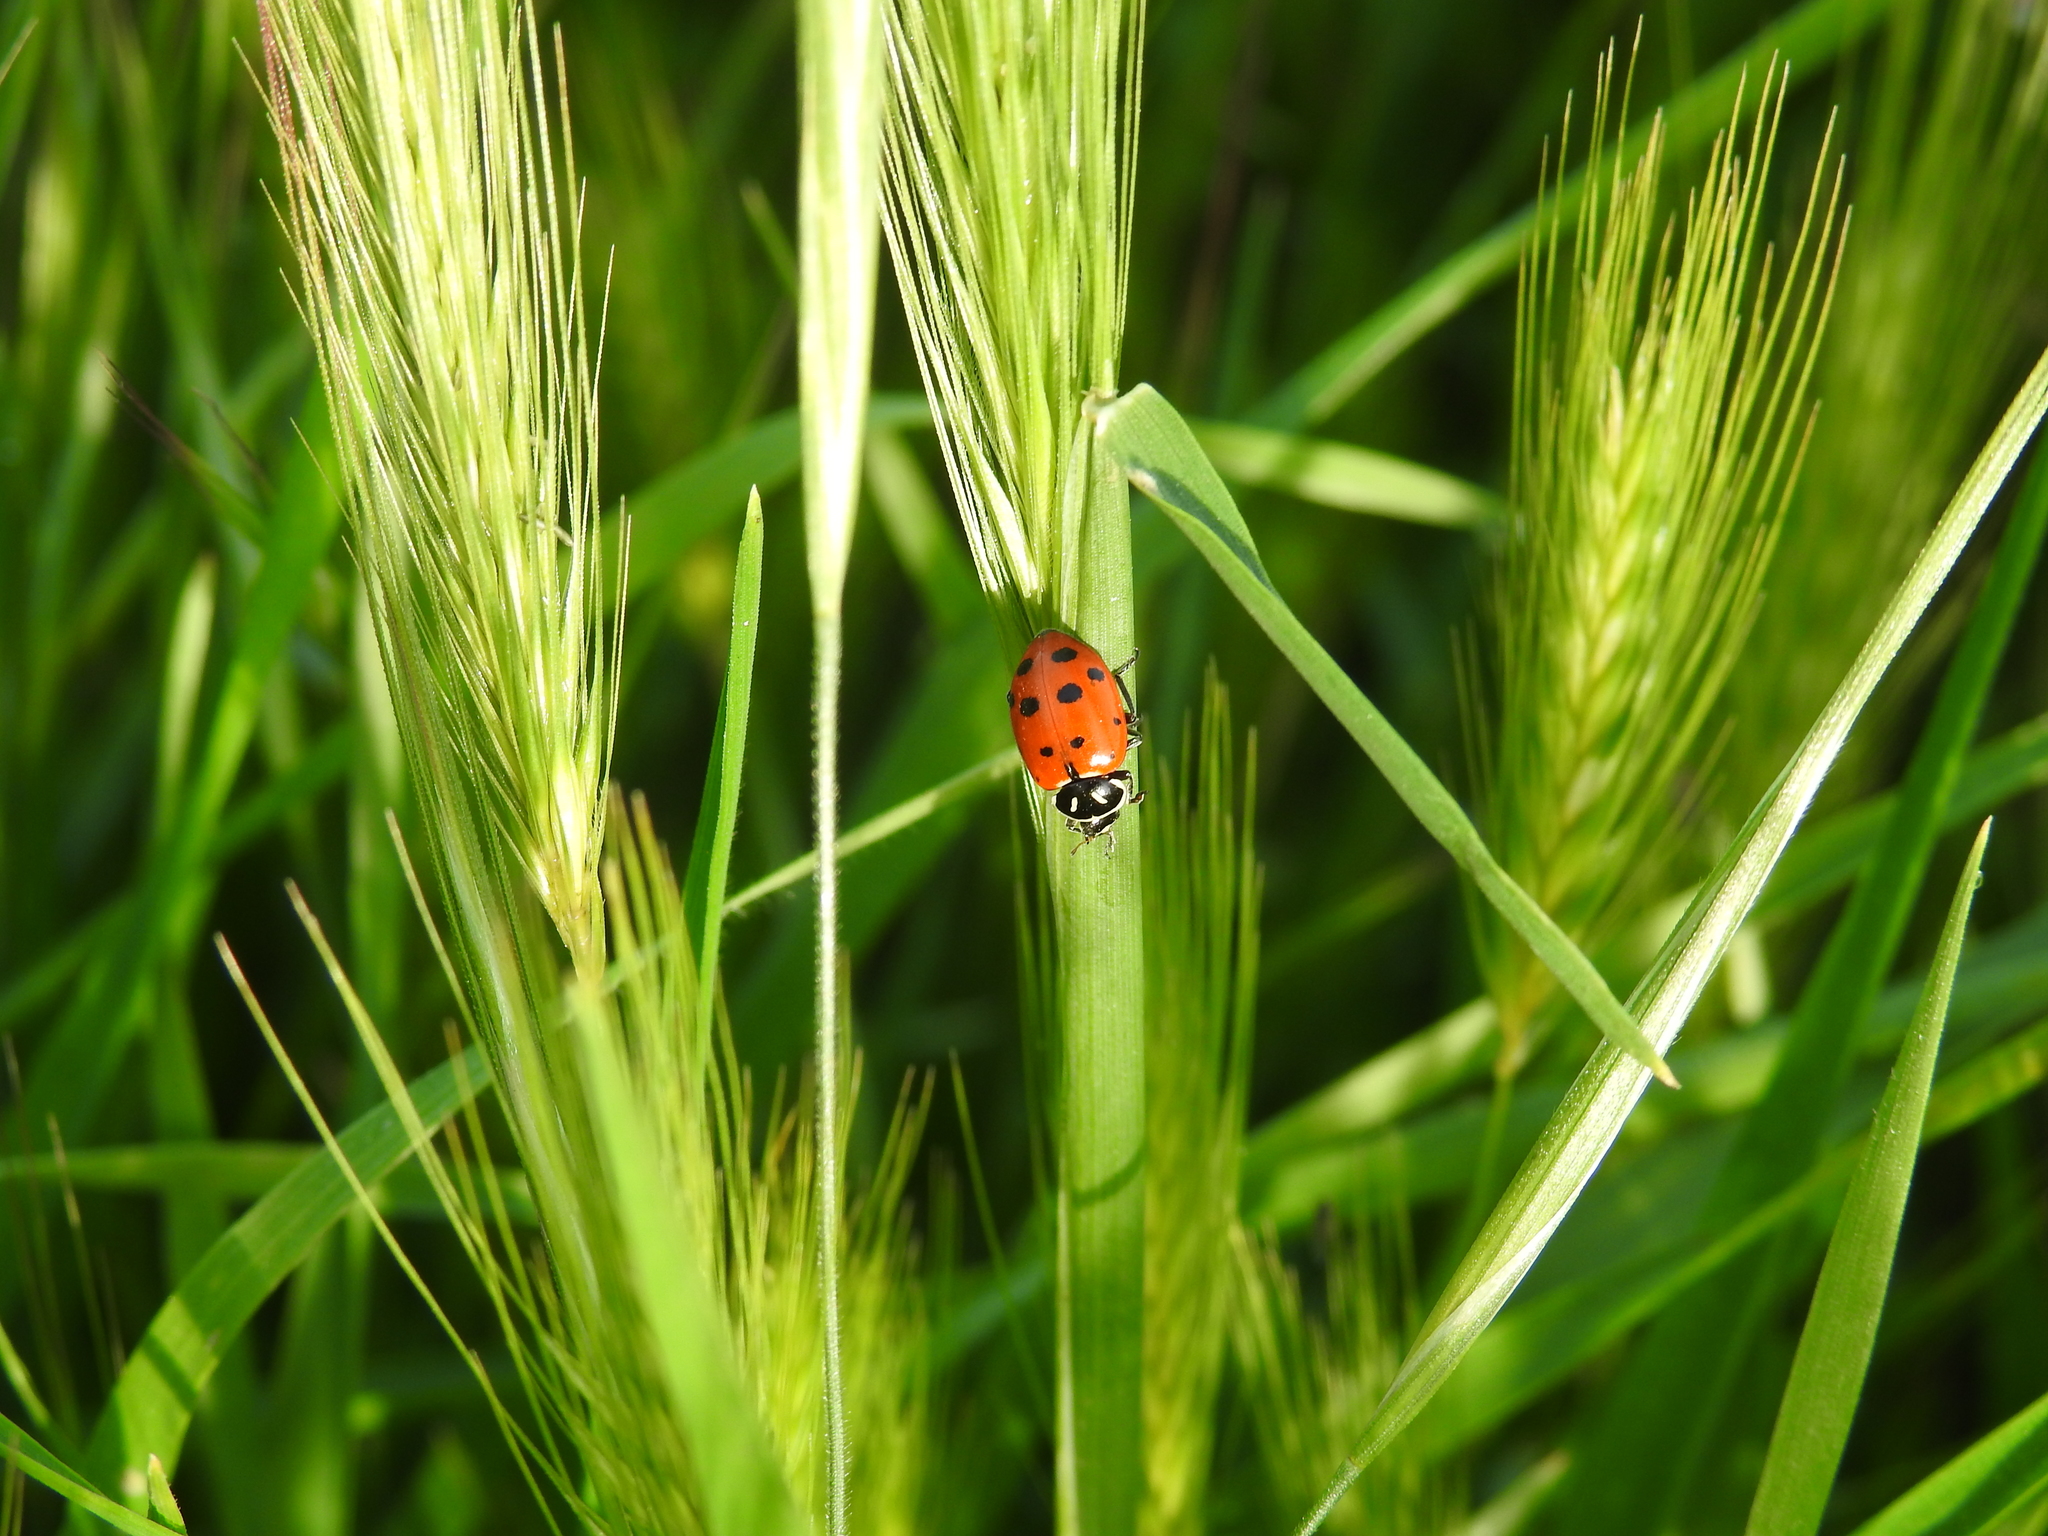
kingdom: Animalia
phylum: Arthropoda
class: Insecta
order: Coleoptera
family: Coccinellidae
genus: Hippodamia
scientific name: Hippodamia convergens
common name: Convergent lady beetle
